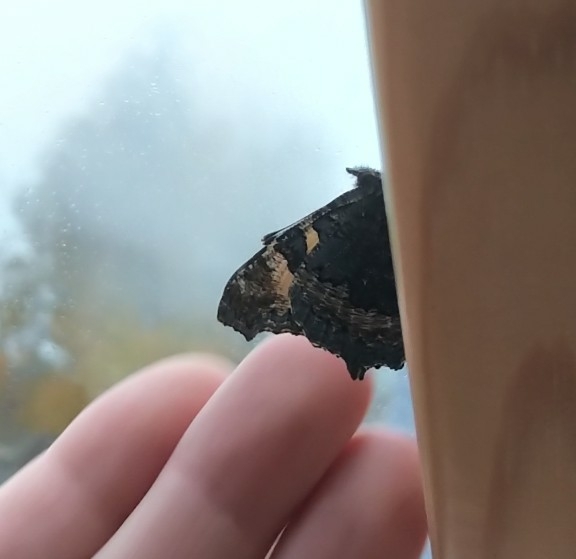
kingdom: Animalia
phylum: Arthropoda
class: Insecta
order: Lepidoptera
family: Nymphalidae
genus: Aglais
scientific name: Aglais urticae
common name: Small tortoiseshell
